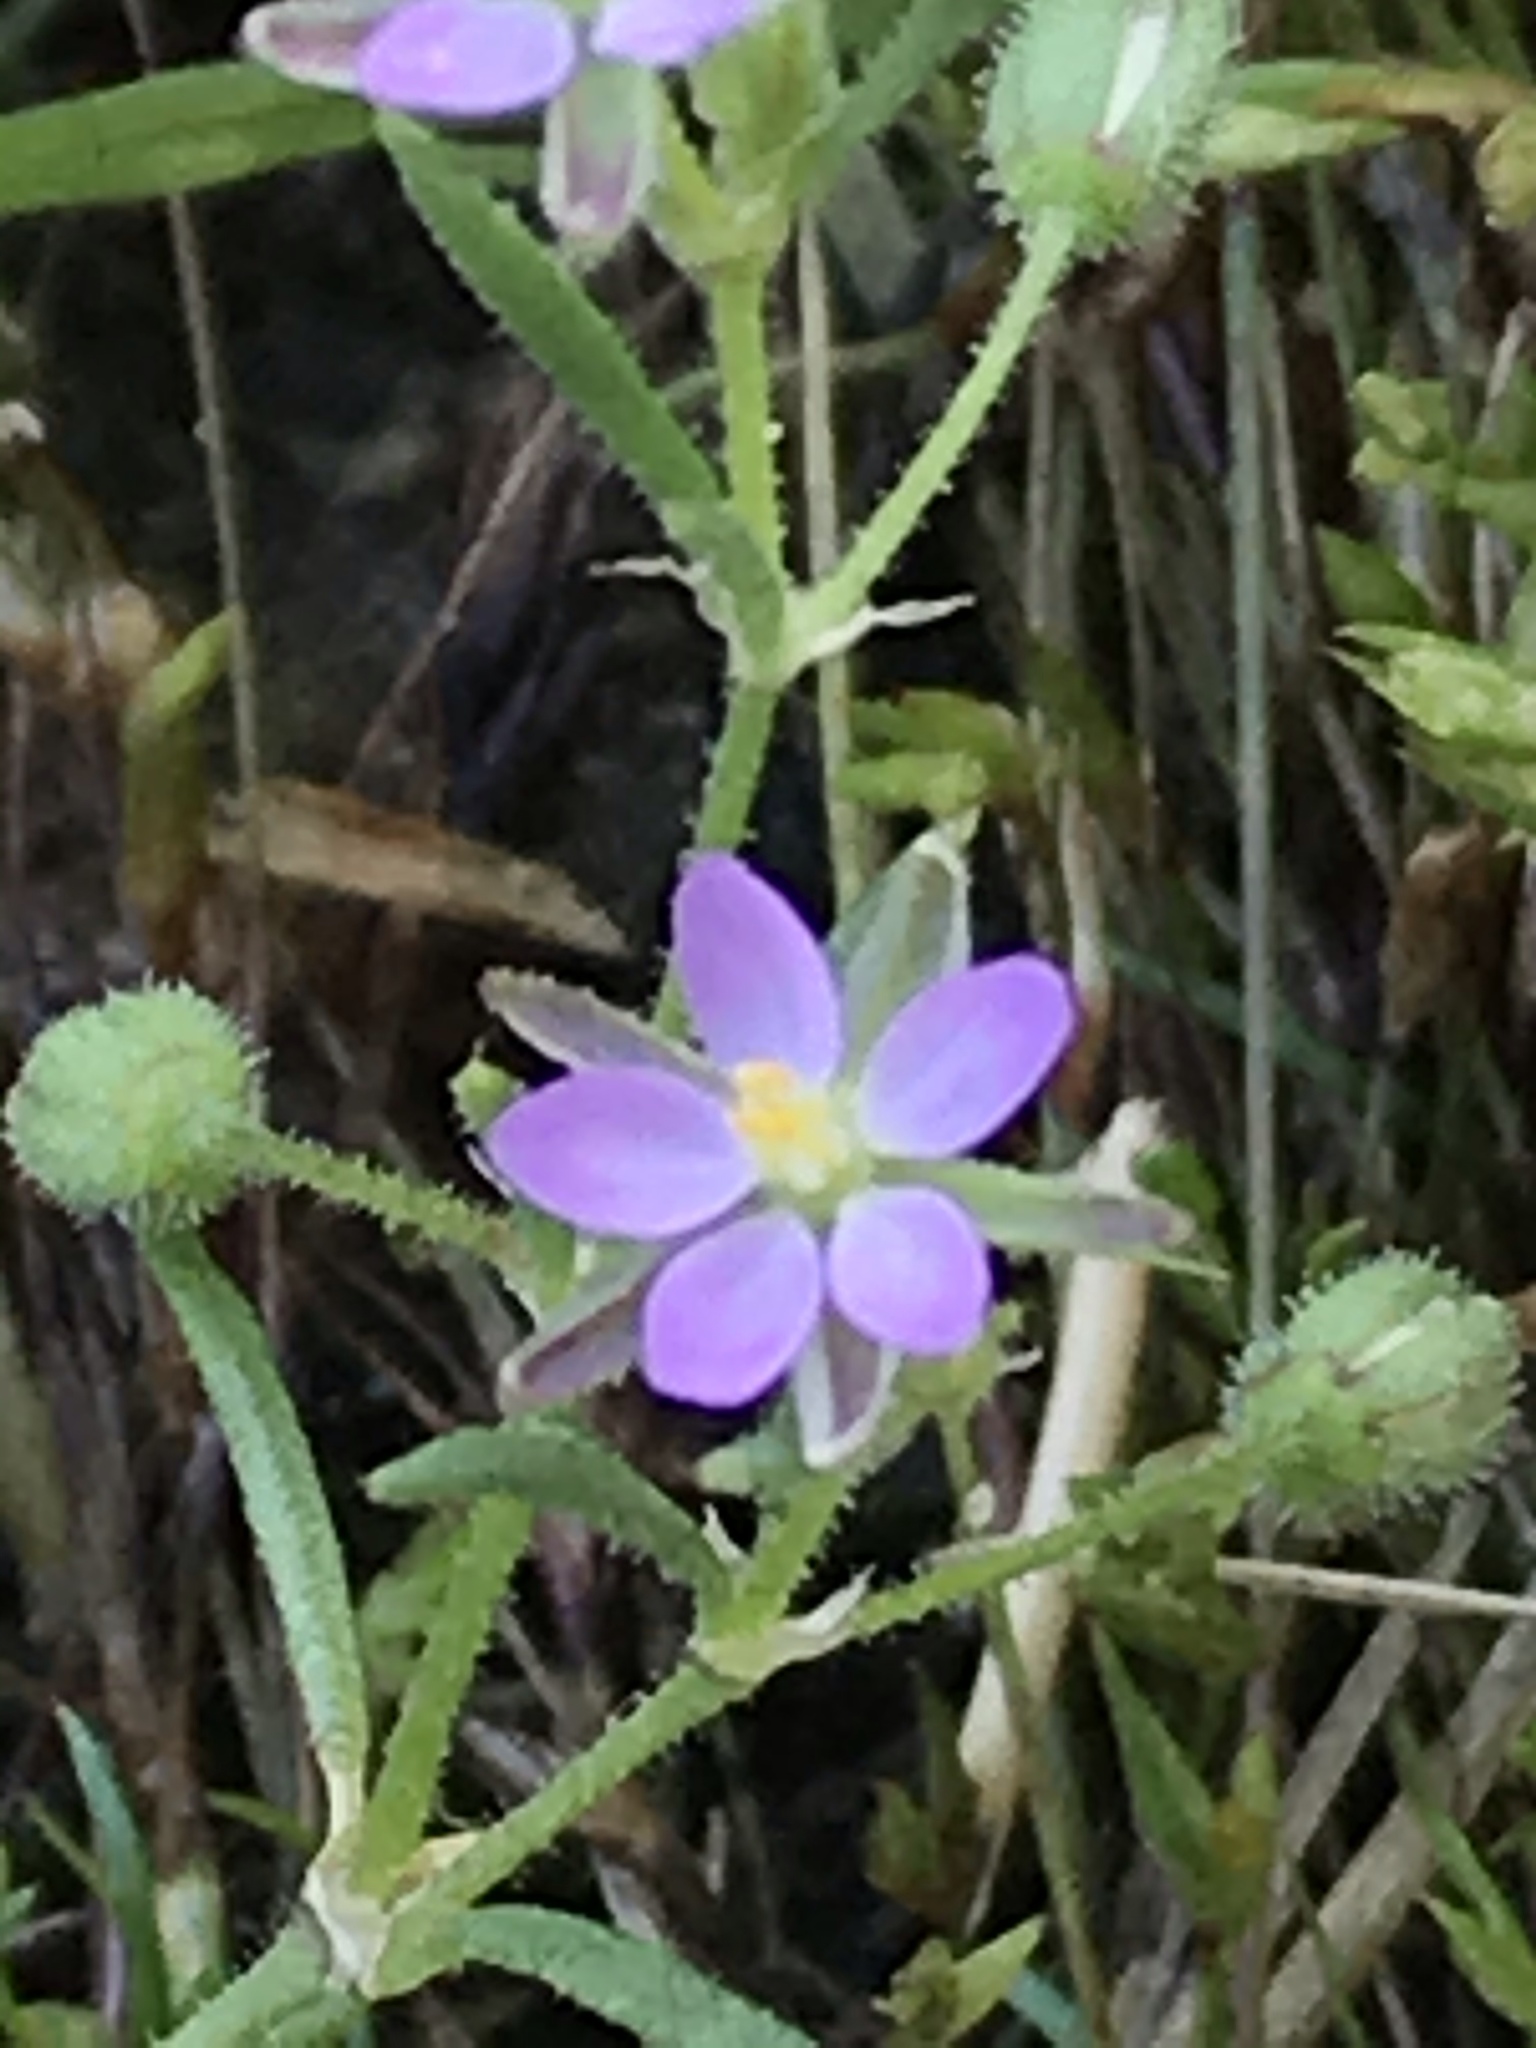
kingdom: Plantae
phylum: Tracheophyta
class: Magnoliopsida
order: Caryophyllales
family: Caryophyllaceae
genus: Spergularia
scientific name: Spergularia rubra
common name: Red sand-spurrey
